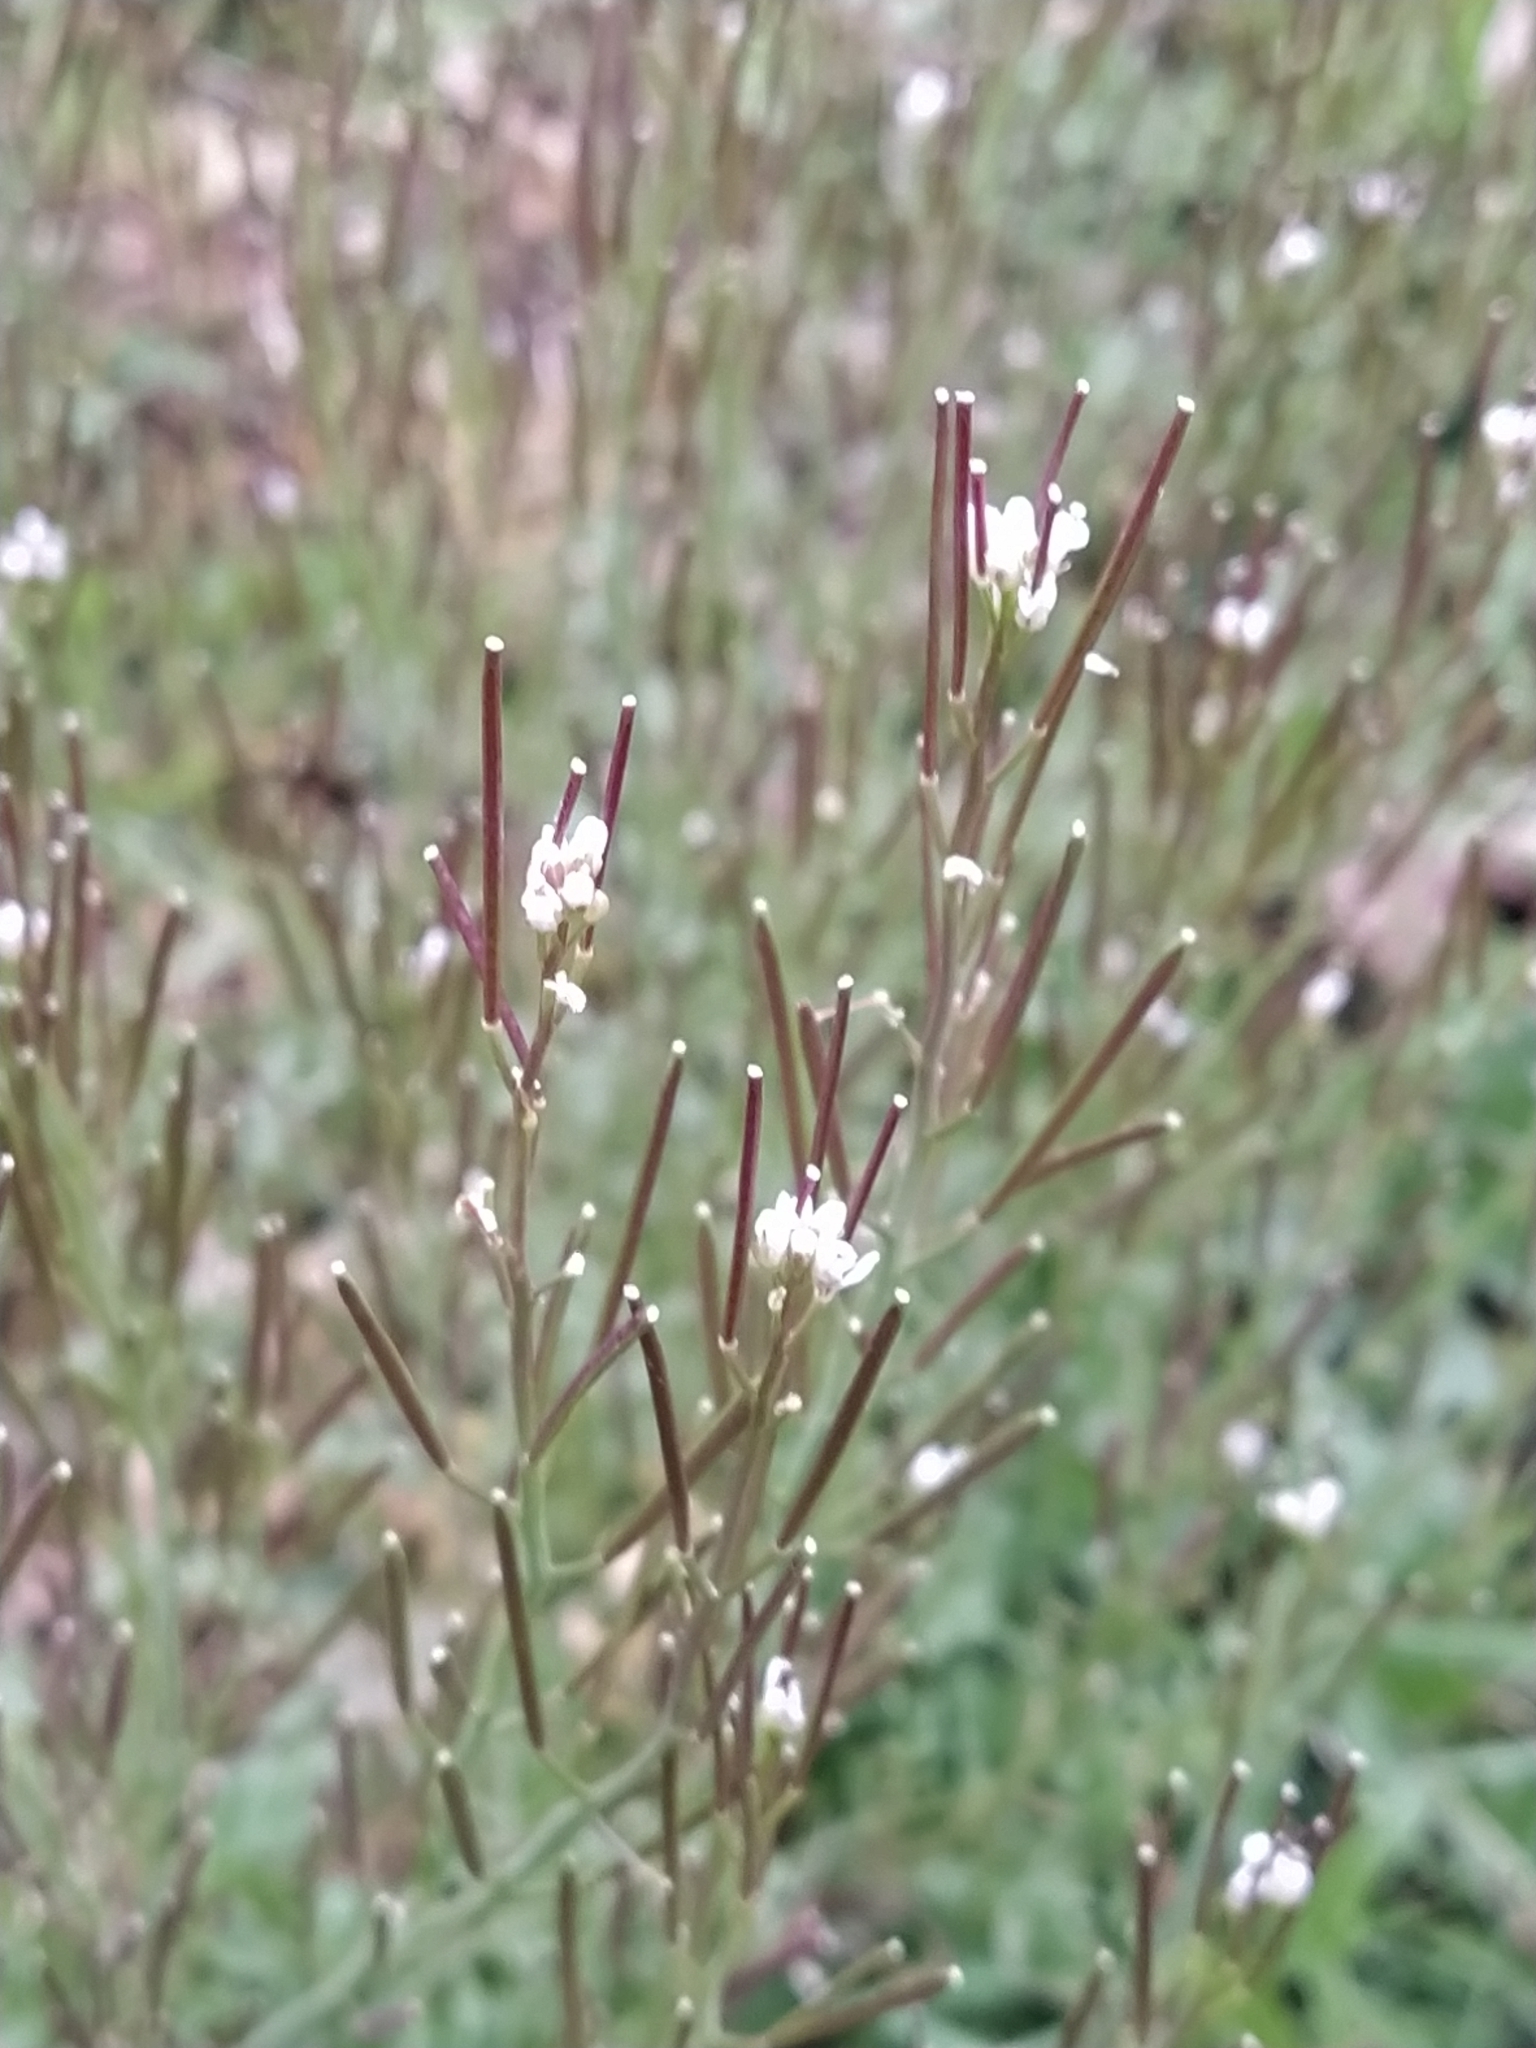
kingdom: Plantae
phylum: Tracheophyta
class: Magnoliopsida
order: Brassicales
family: Brassicaceae
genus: Cardamine
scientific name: Cardamine hirsuta
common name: Hairy bittercress
